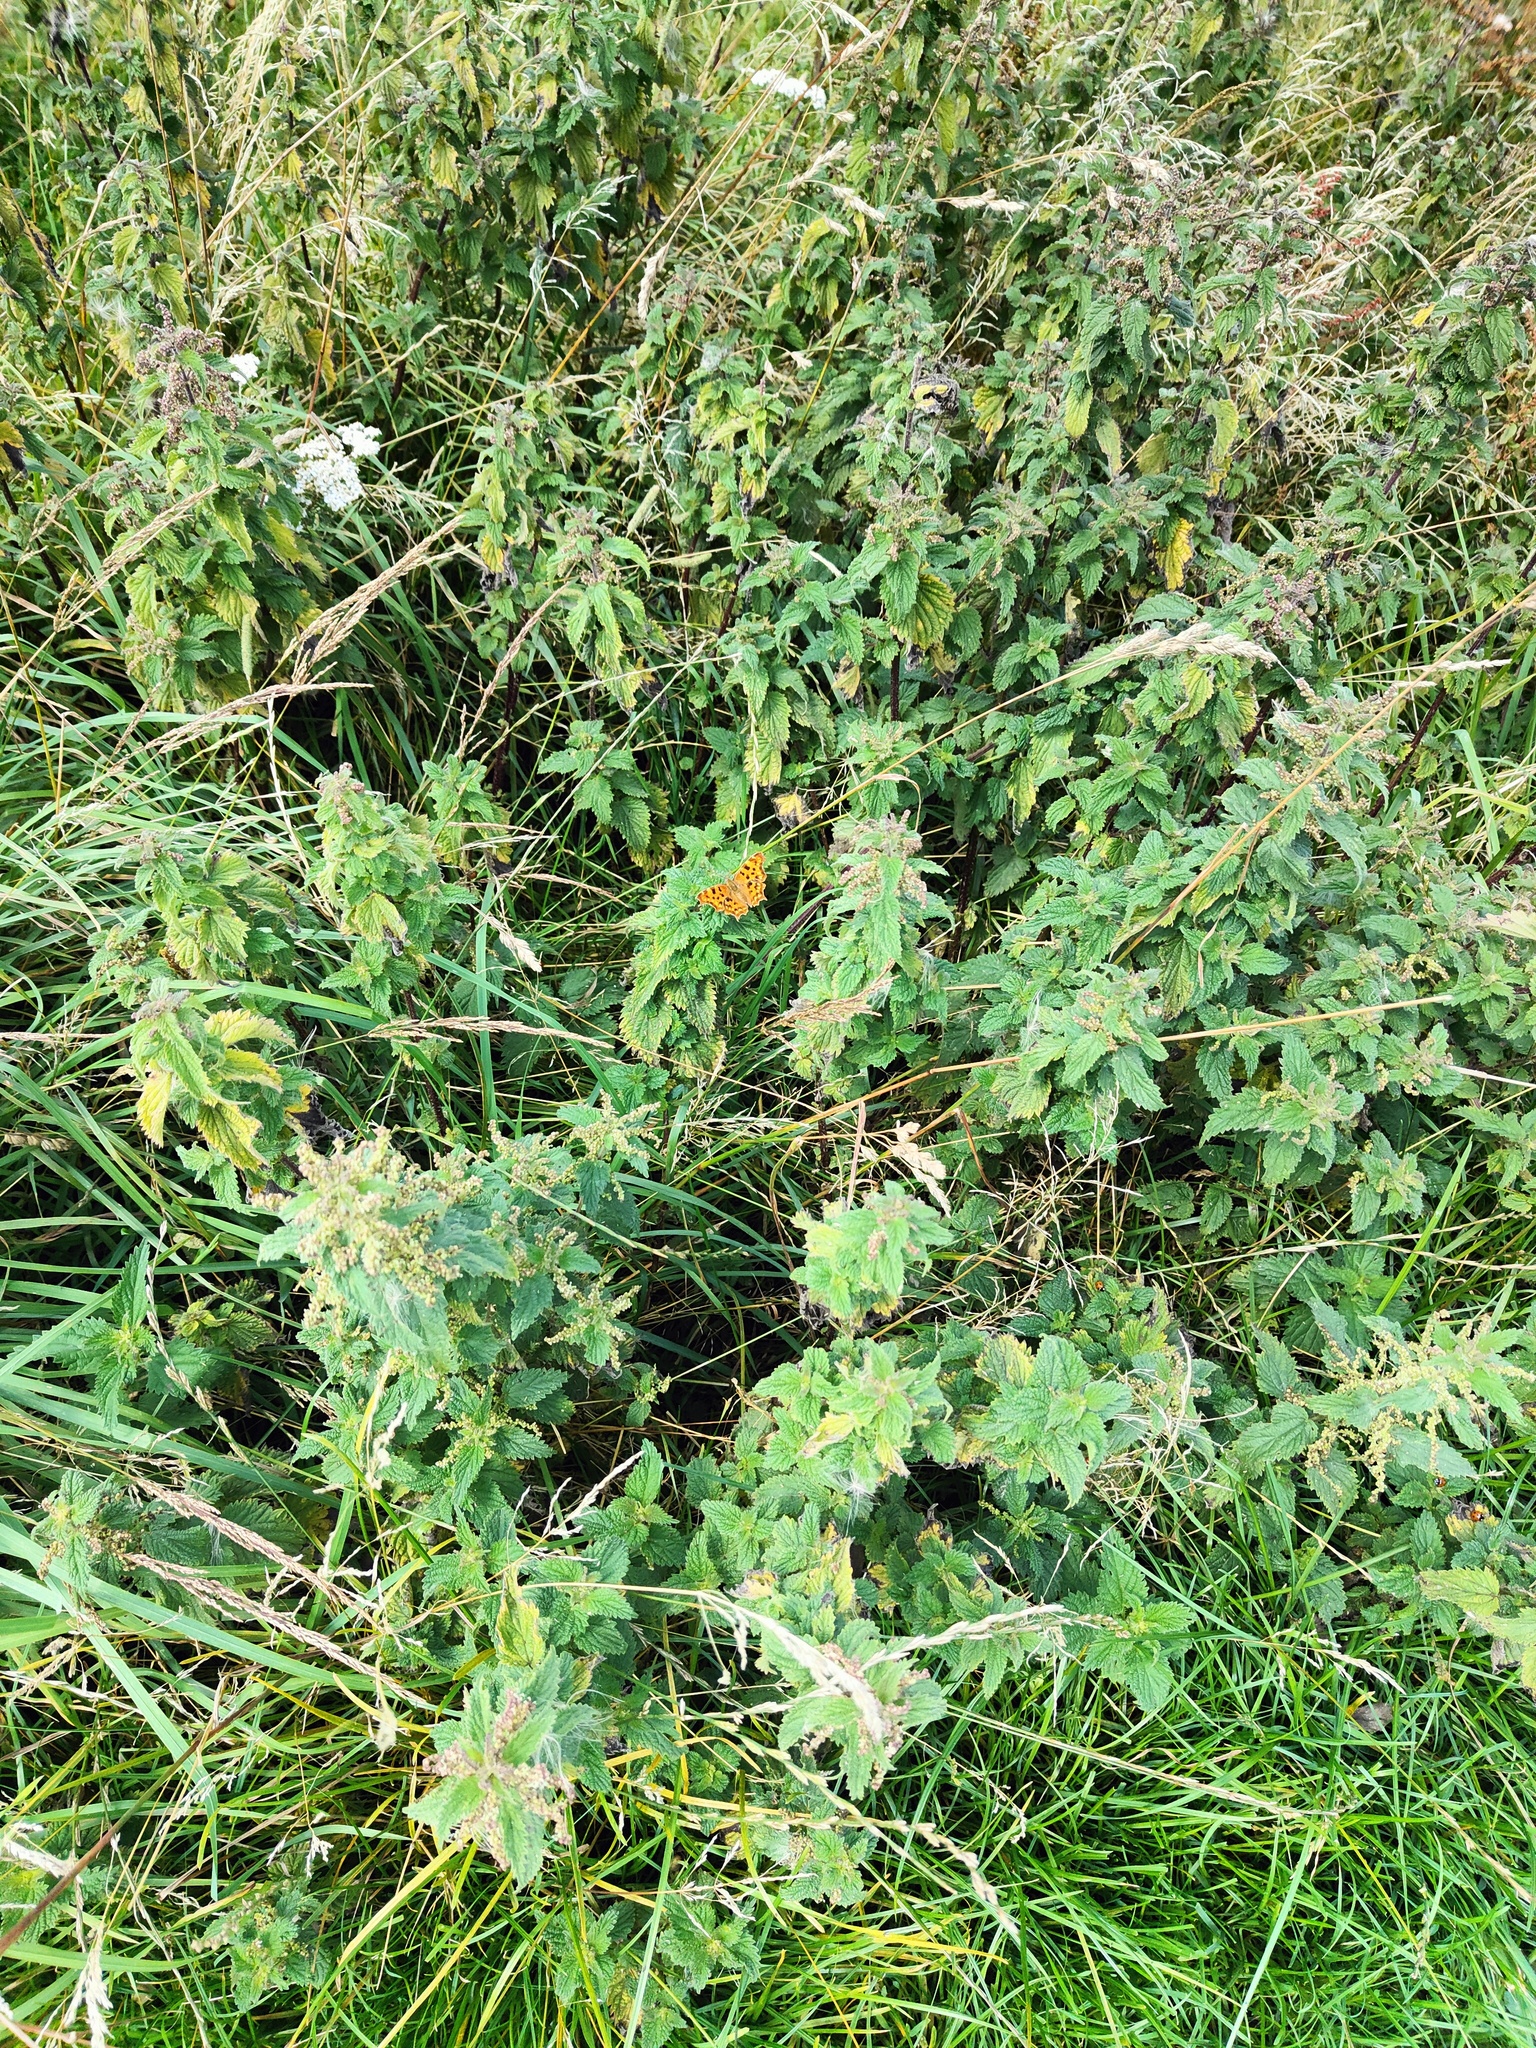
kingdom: Animalia
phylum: Arthropoda
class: Insecta
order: Lepidoptera
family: Nymphalidae
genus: Polygonia
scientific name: Polygonia c-album
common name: Comma
